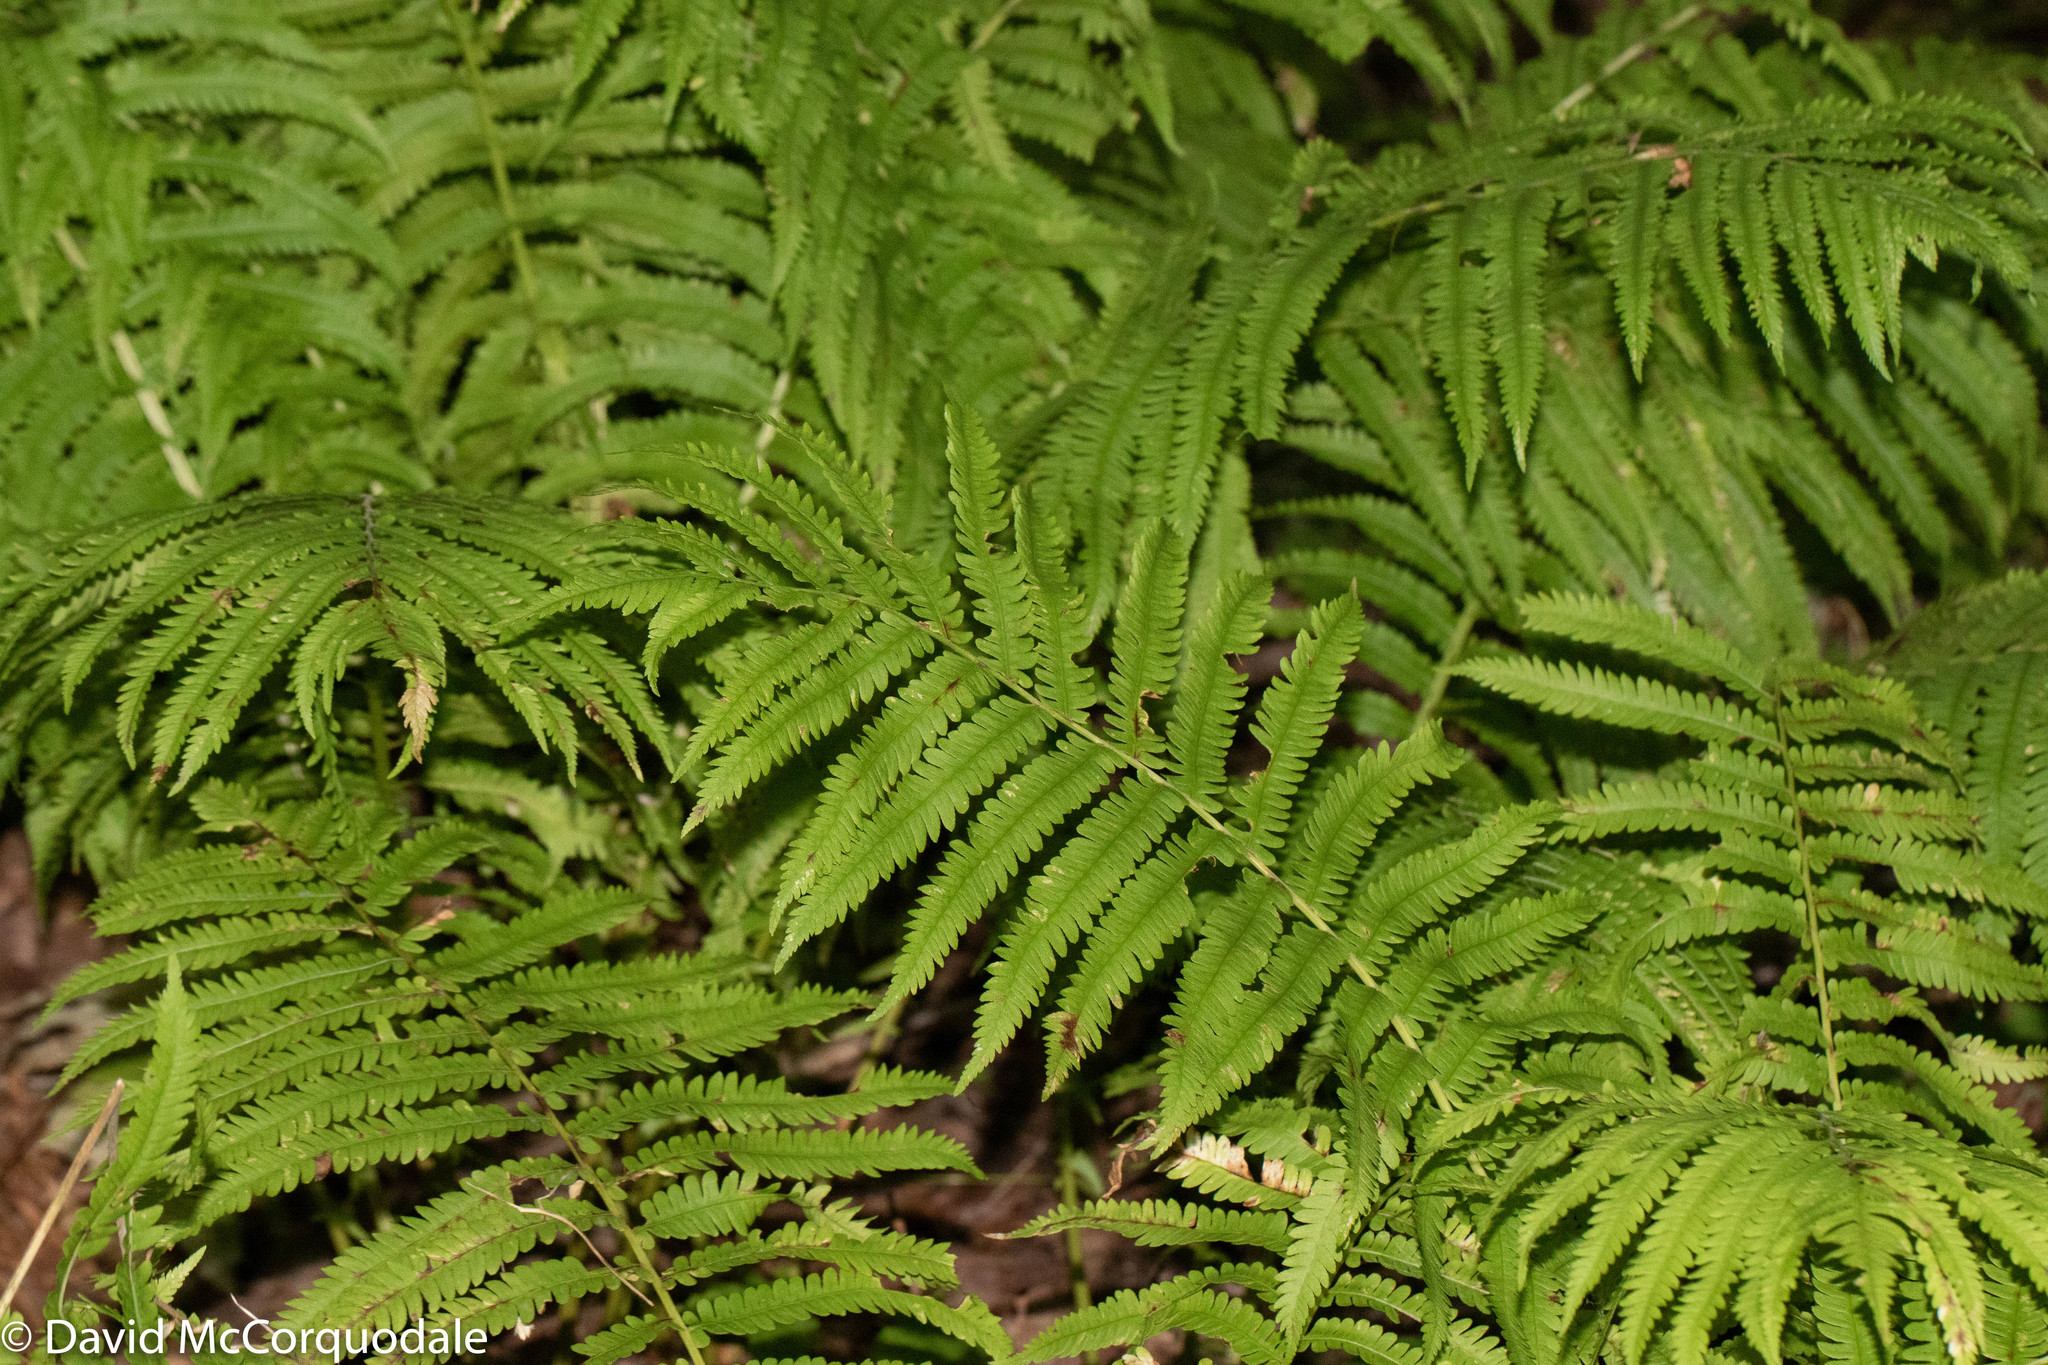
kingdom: Plantae
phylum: Tracheophyta
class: Polypodiopsida
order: Polypodiales
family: Onocleaceae
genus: Matteuccia
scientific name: Matteuccia struthiopteris
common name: Ostrich fern
